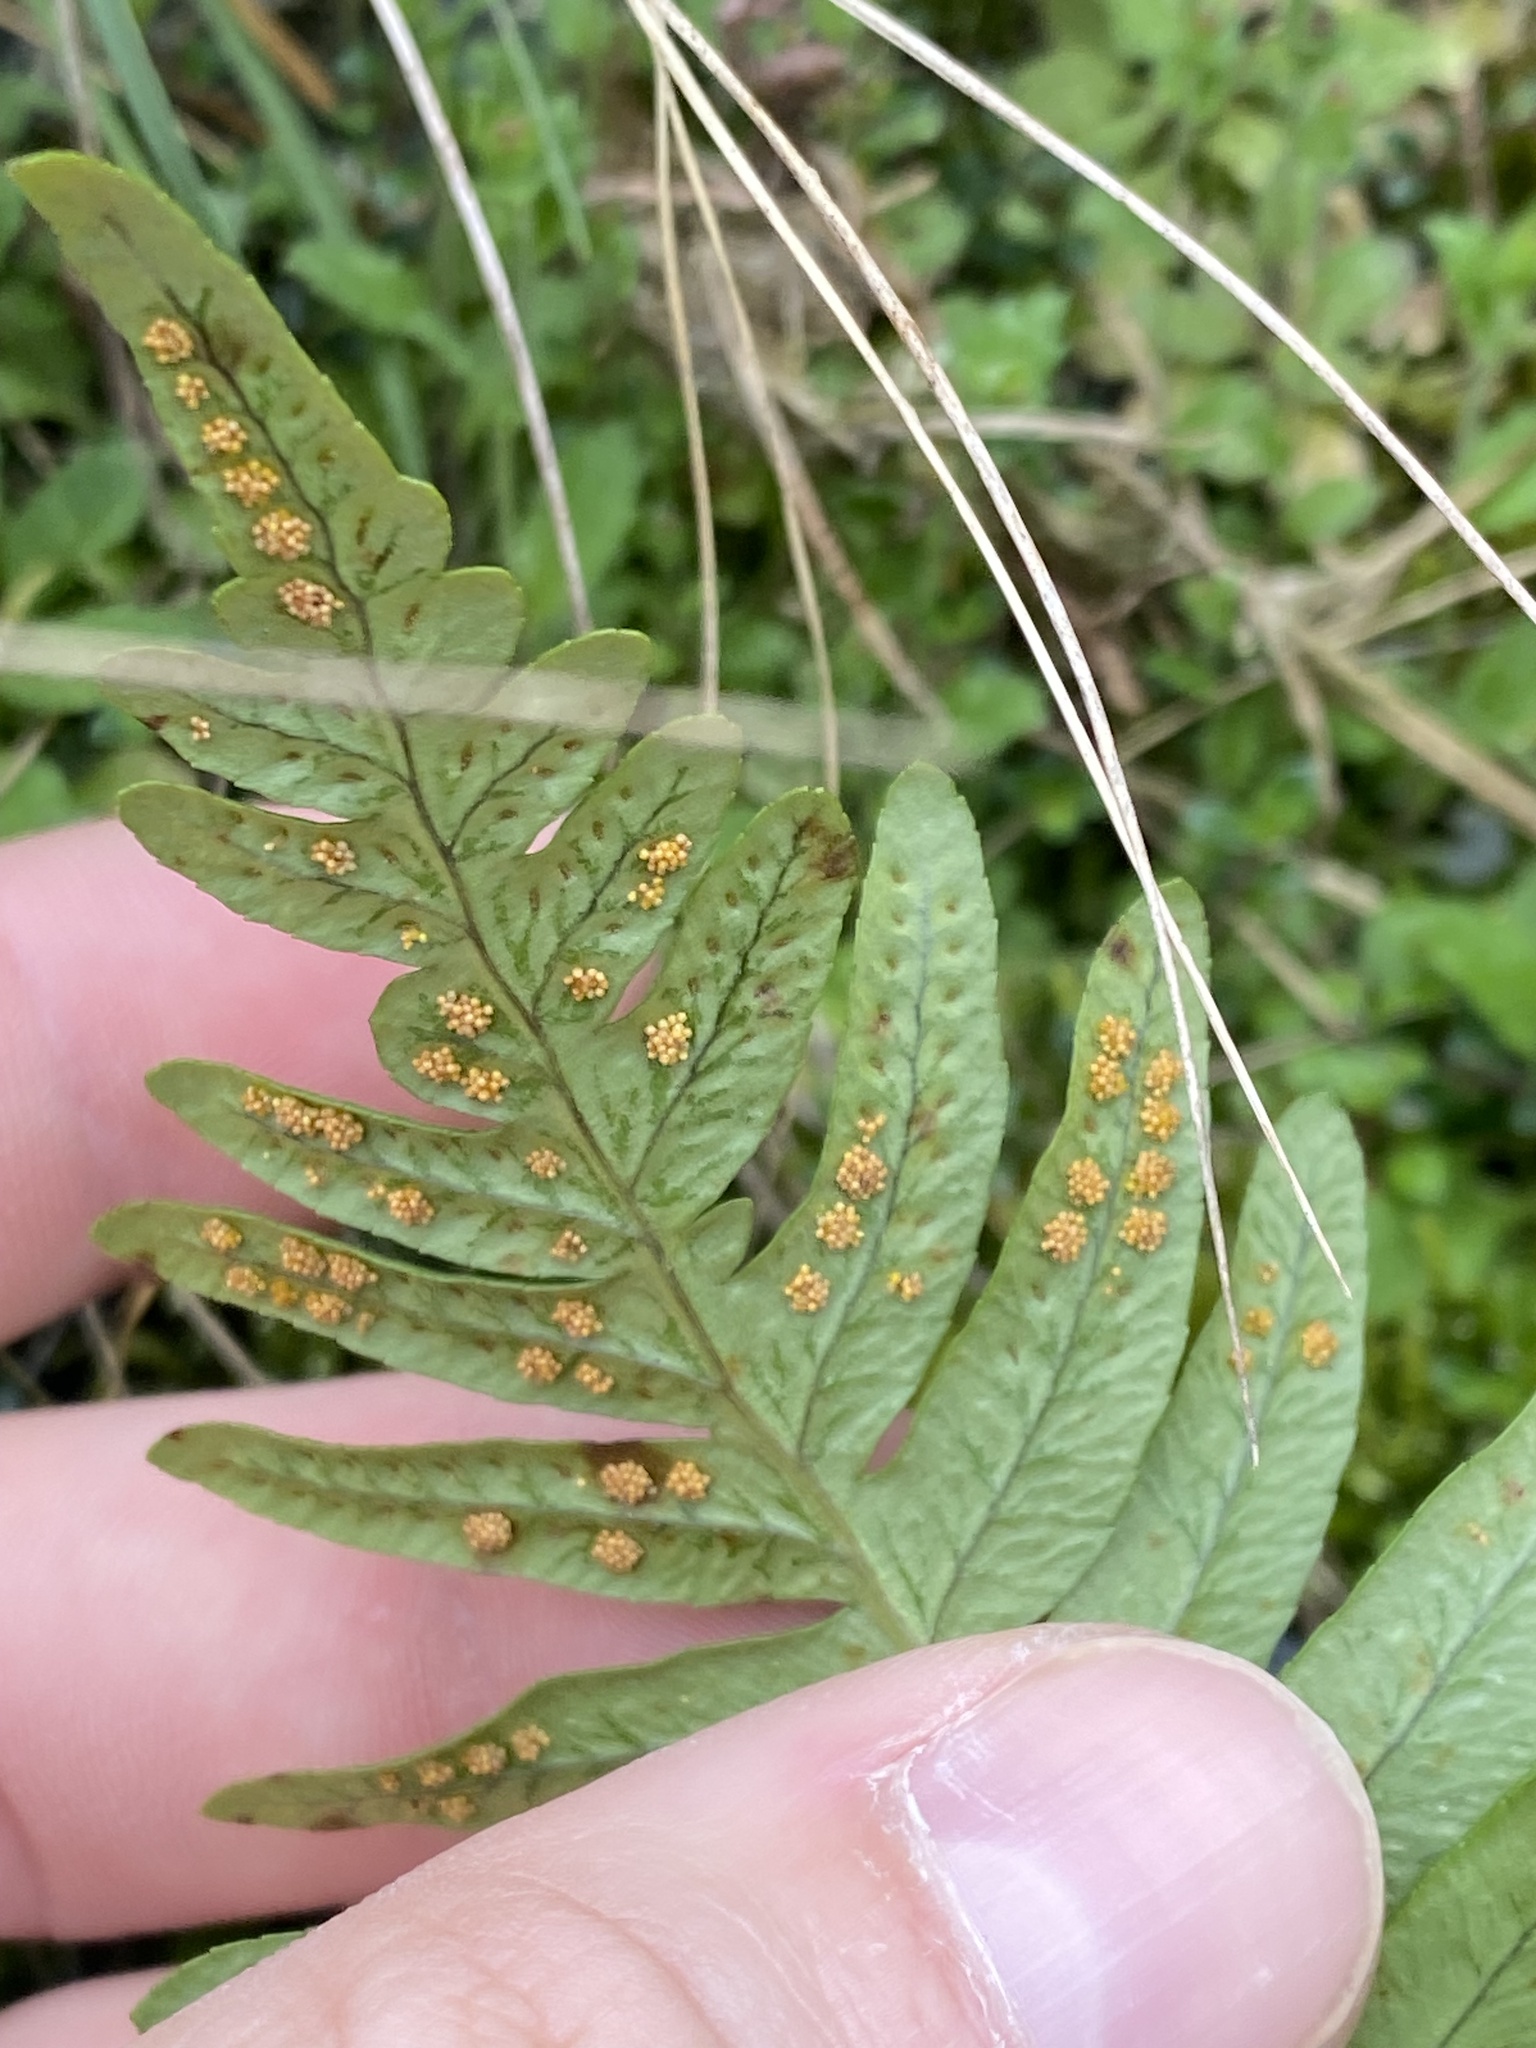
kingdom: Plantae
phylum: Tracheophyta
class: Polypodiopsida
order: Polypodiales
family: Polypodiaceae
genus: Polypodium
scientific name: Polypodium vulgare
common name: Common polypody
